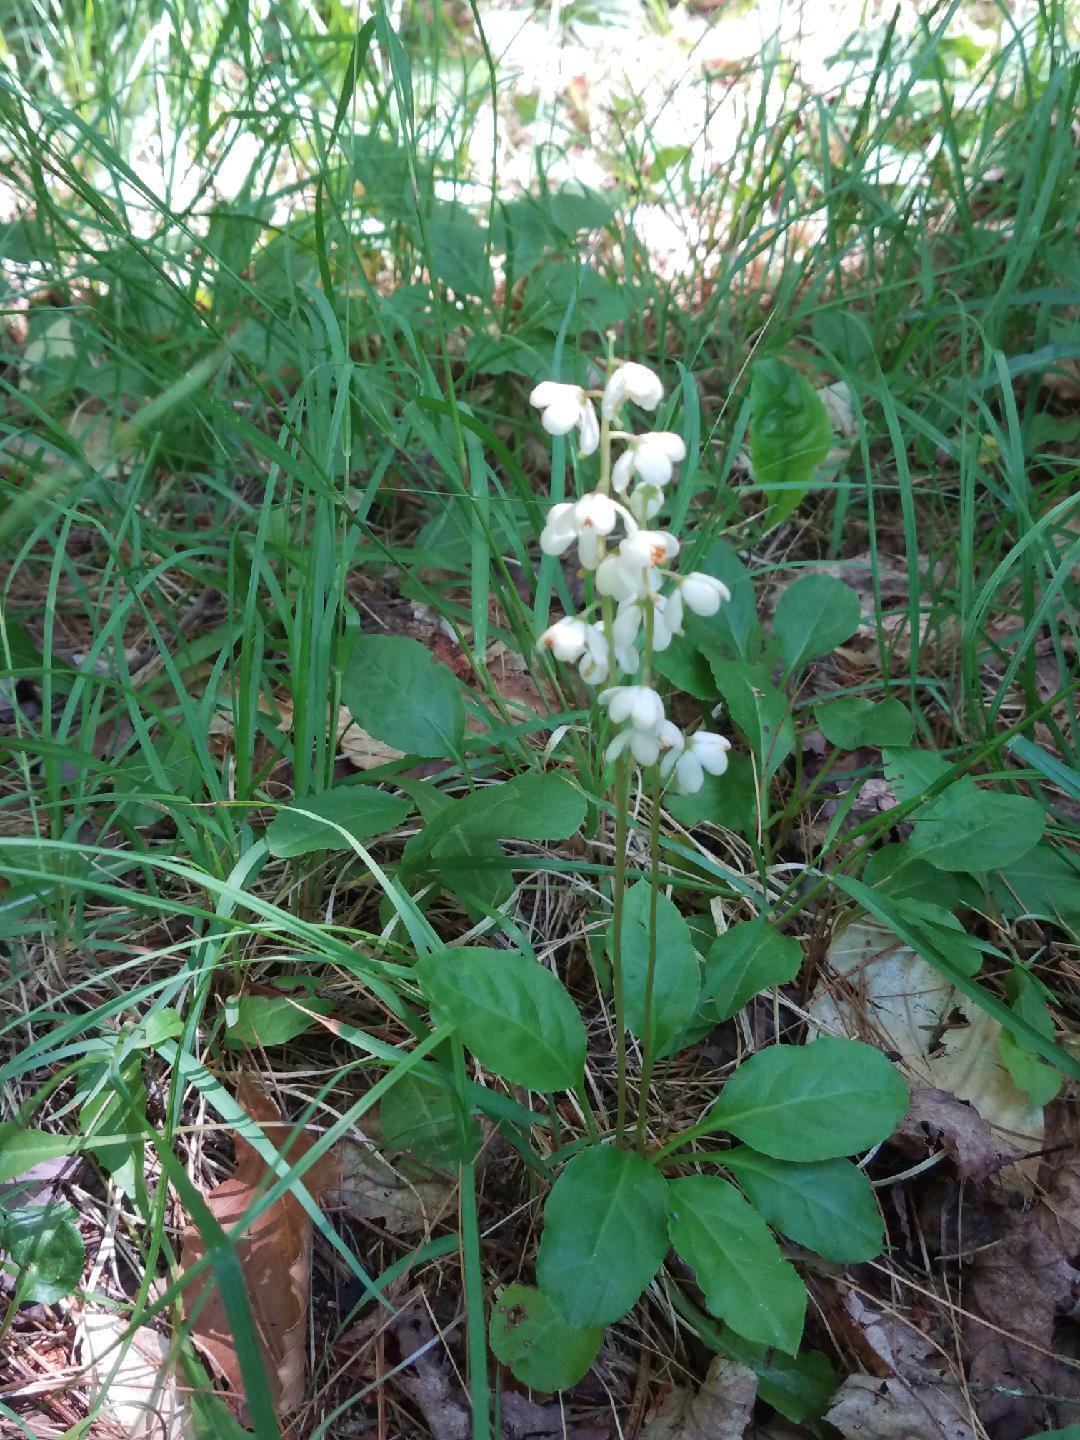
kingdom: Plantae
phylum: Tracheophyta
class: Magnoliopsida
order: Ericales
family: Ericaceae
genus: Pyrola
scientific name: Pyrola elliptica
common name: Shinleaf
